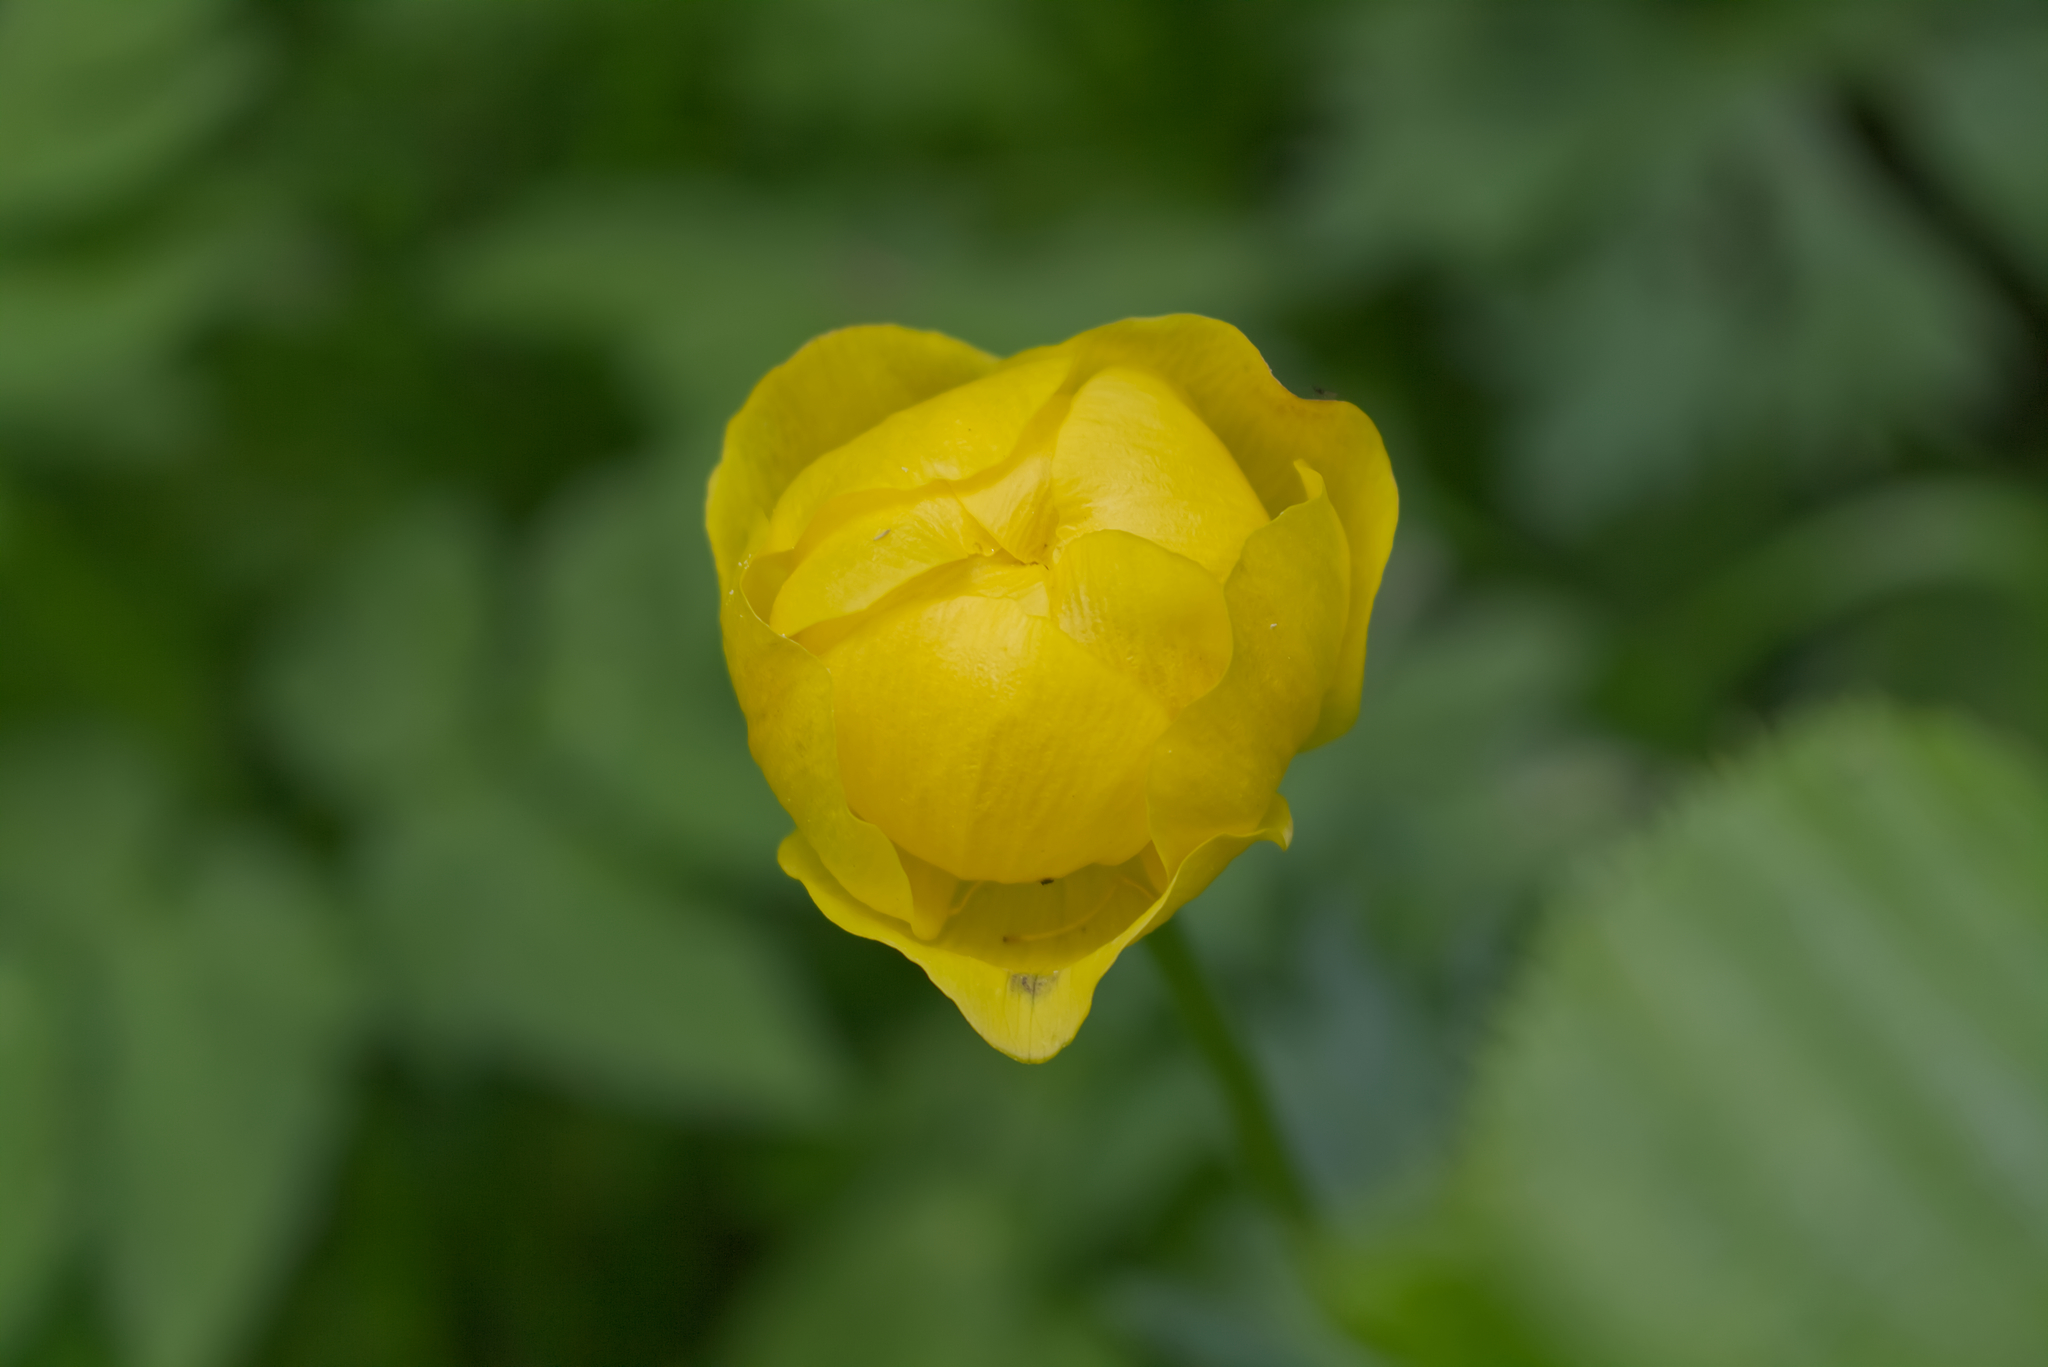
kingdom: Plantae
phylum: Tracheophyta
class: Magnoliopsida
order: Ranunculales
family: Ranunculaceae
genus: Trollius
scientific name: Trollius europaeus
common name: European globeflower
